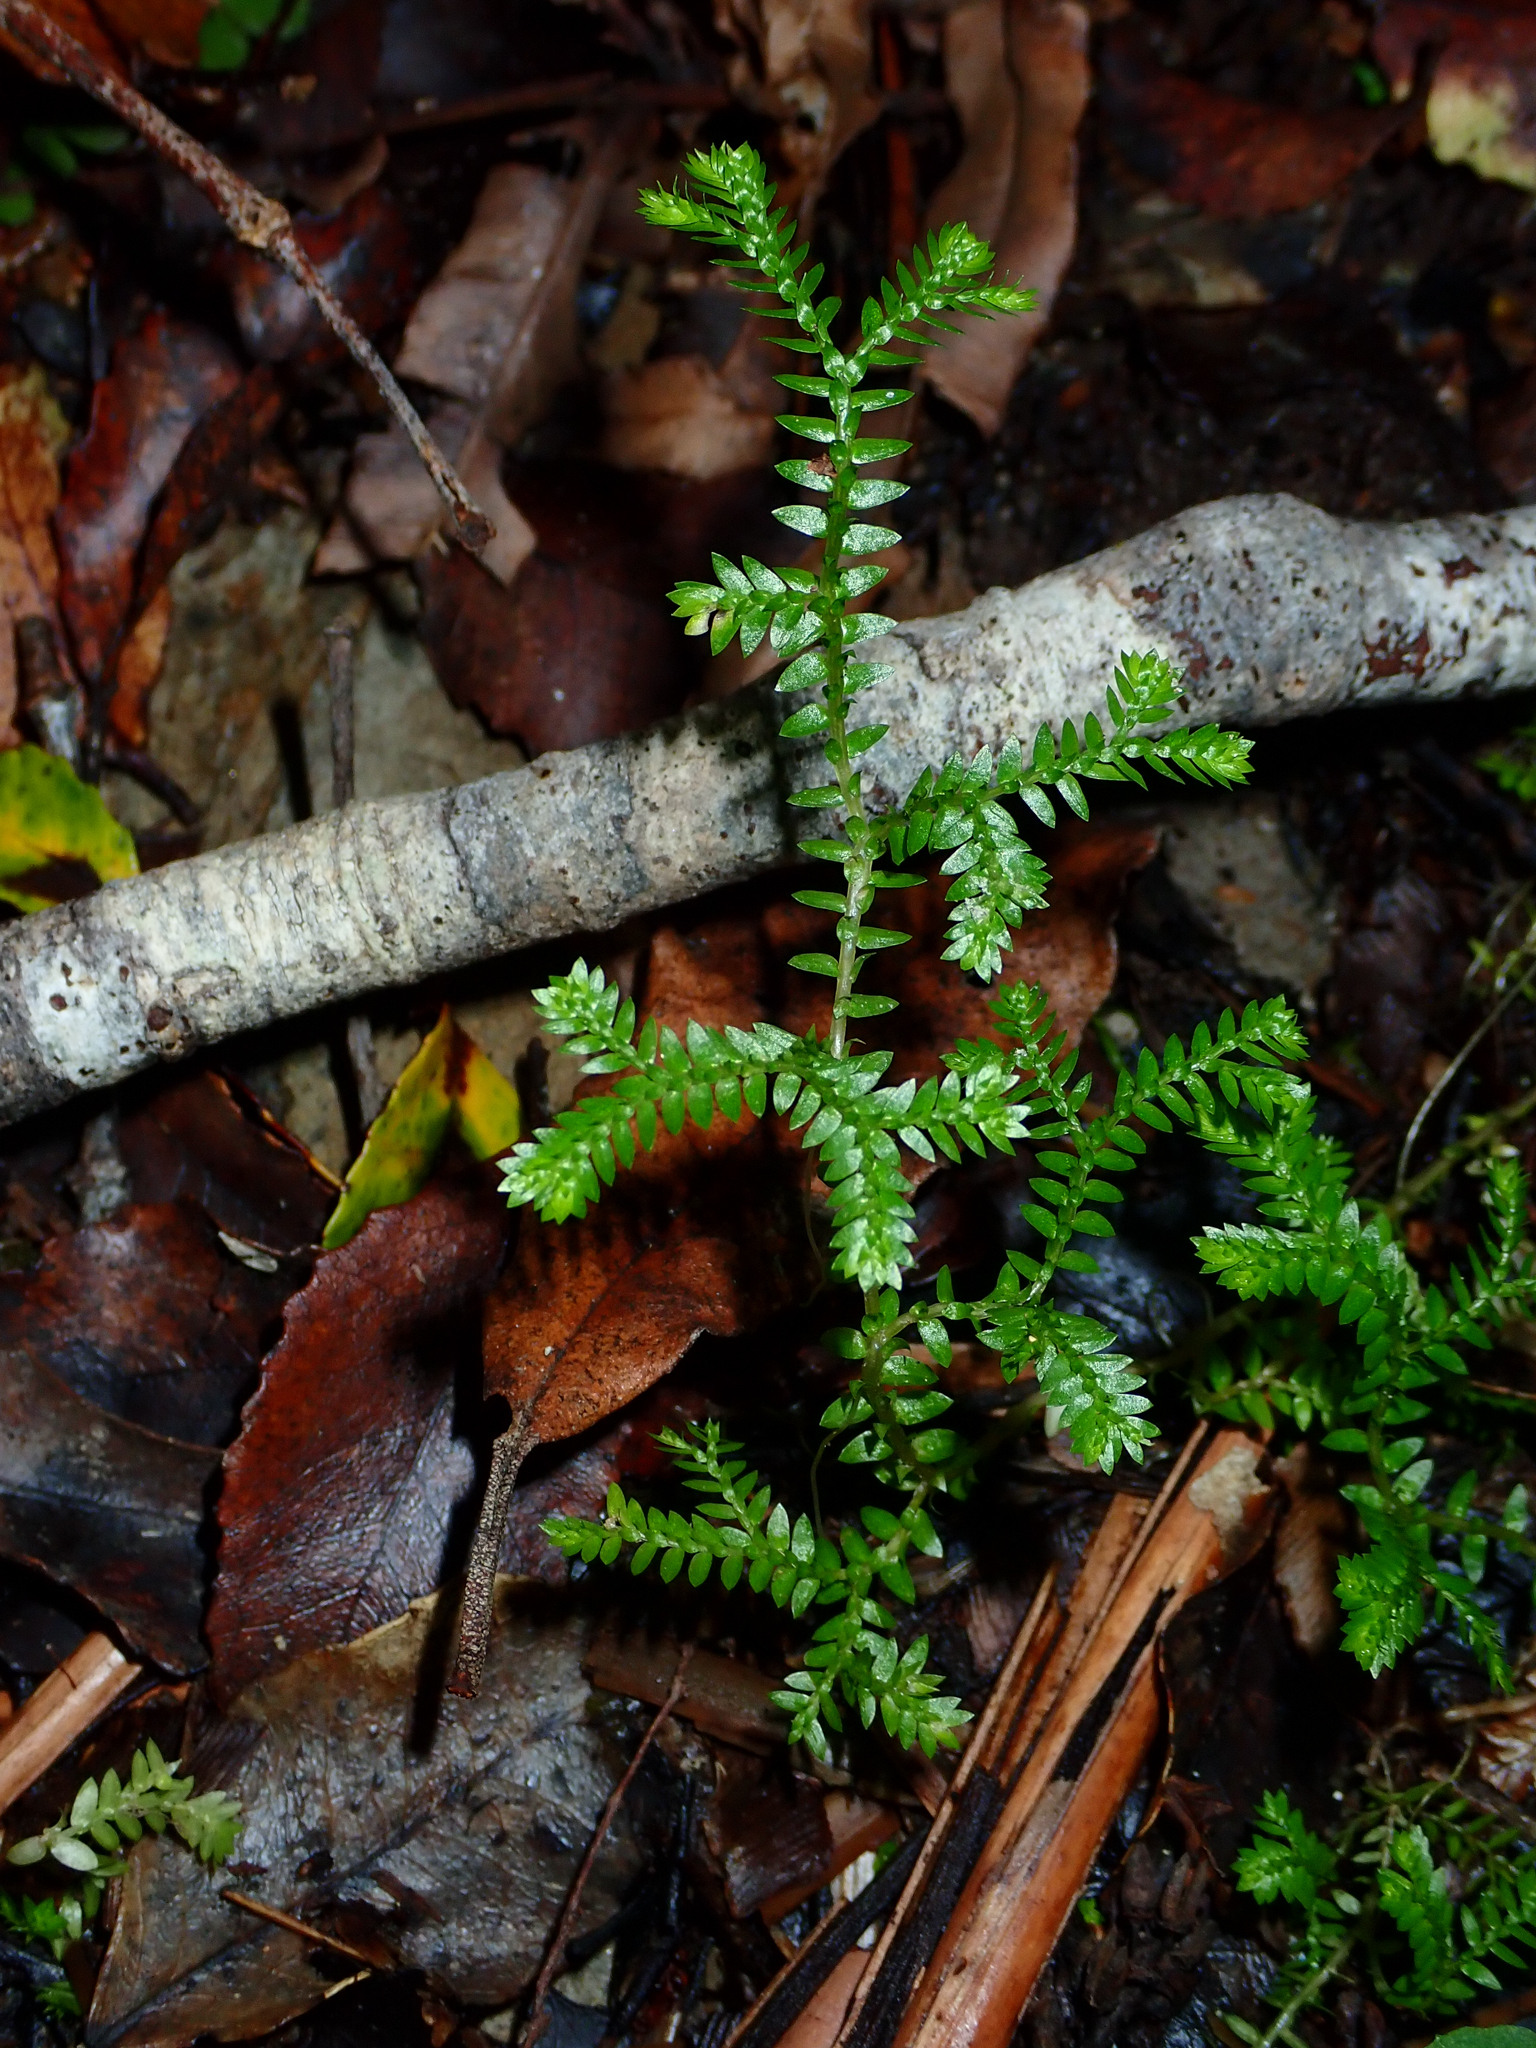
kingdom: Plantae
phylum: Tracheophyta
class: Lycopodiopsida
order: Selaginellales
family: Selaginellaceae
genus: Selaginella
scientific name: Selaginella kraussiana
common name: Krauss' spikemoss
